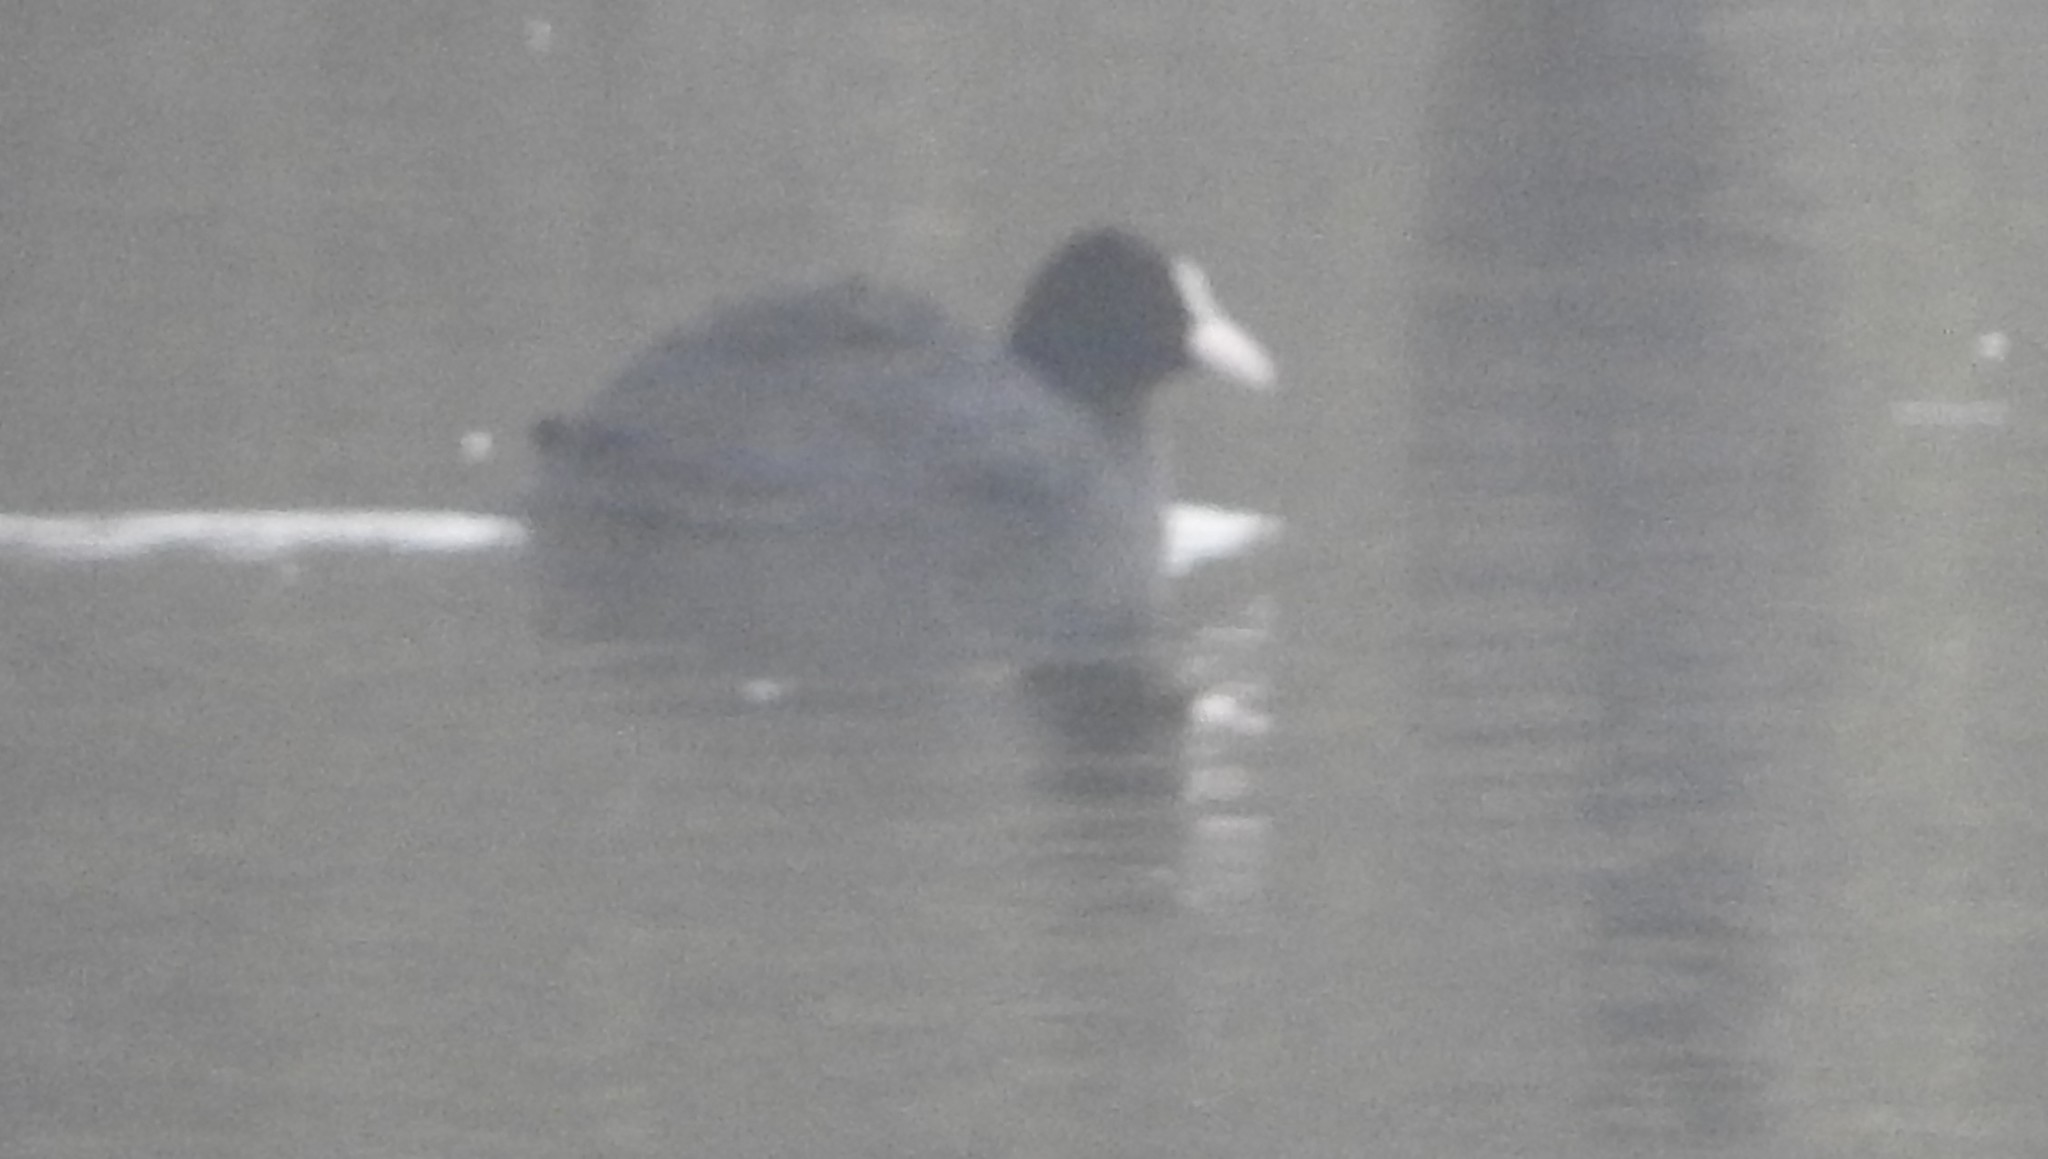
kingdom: Animalia
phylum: Chordata
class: Aves
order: Gruiformes
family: Rallidae
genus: Fulica
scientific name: Fulica atra
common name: Eurasian coot
